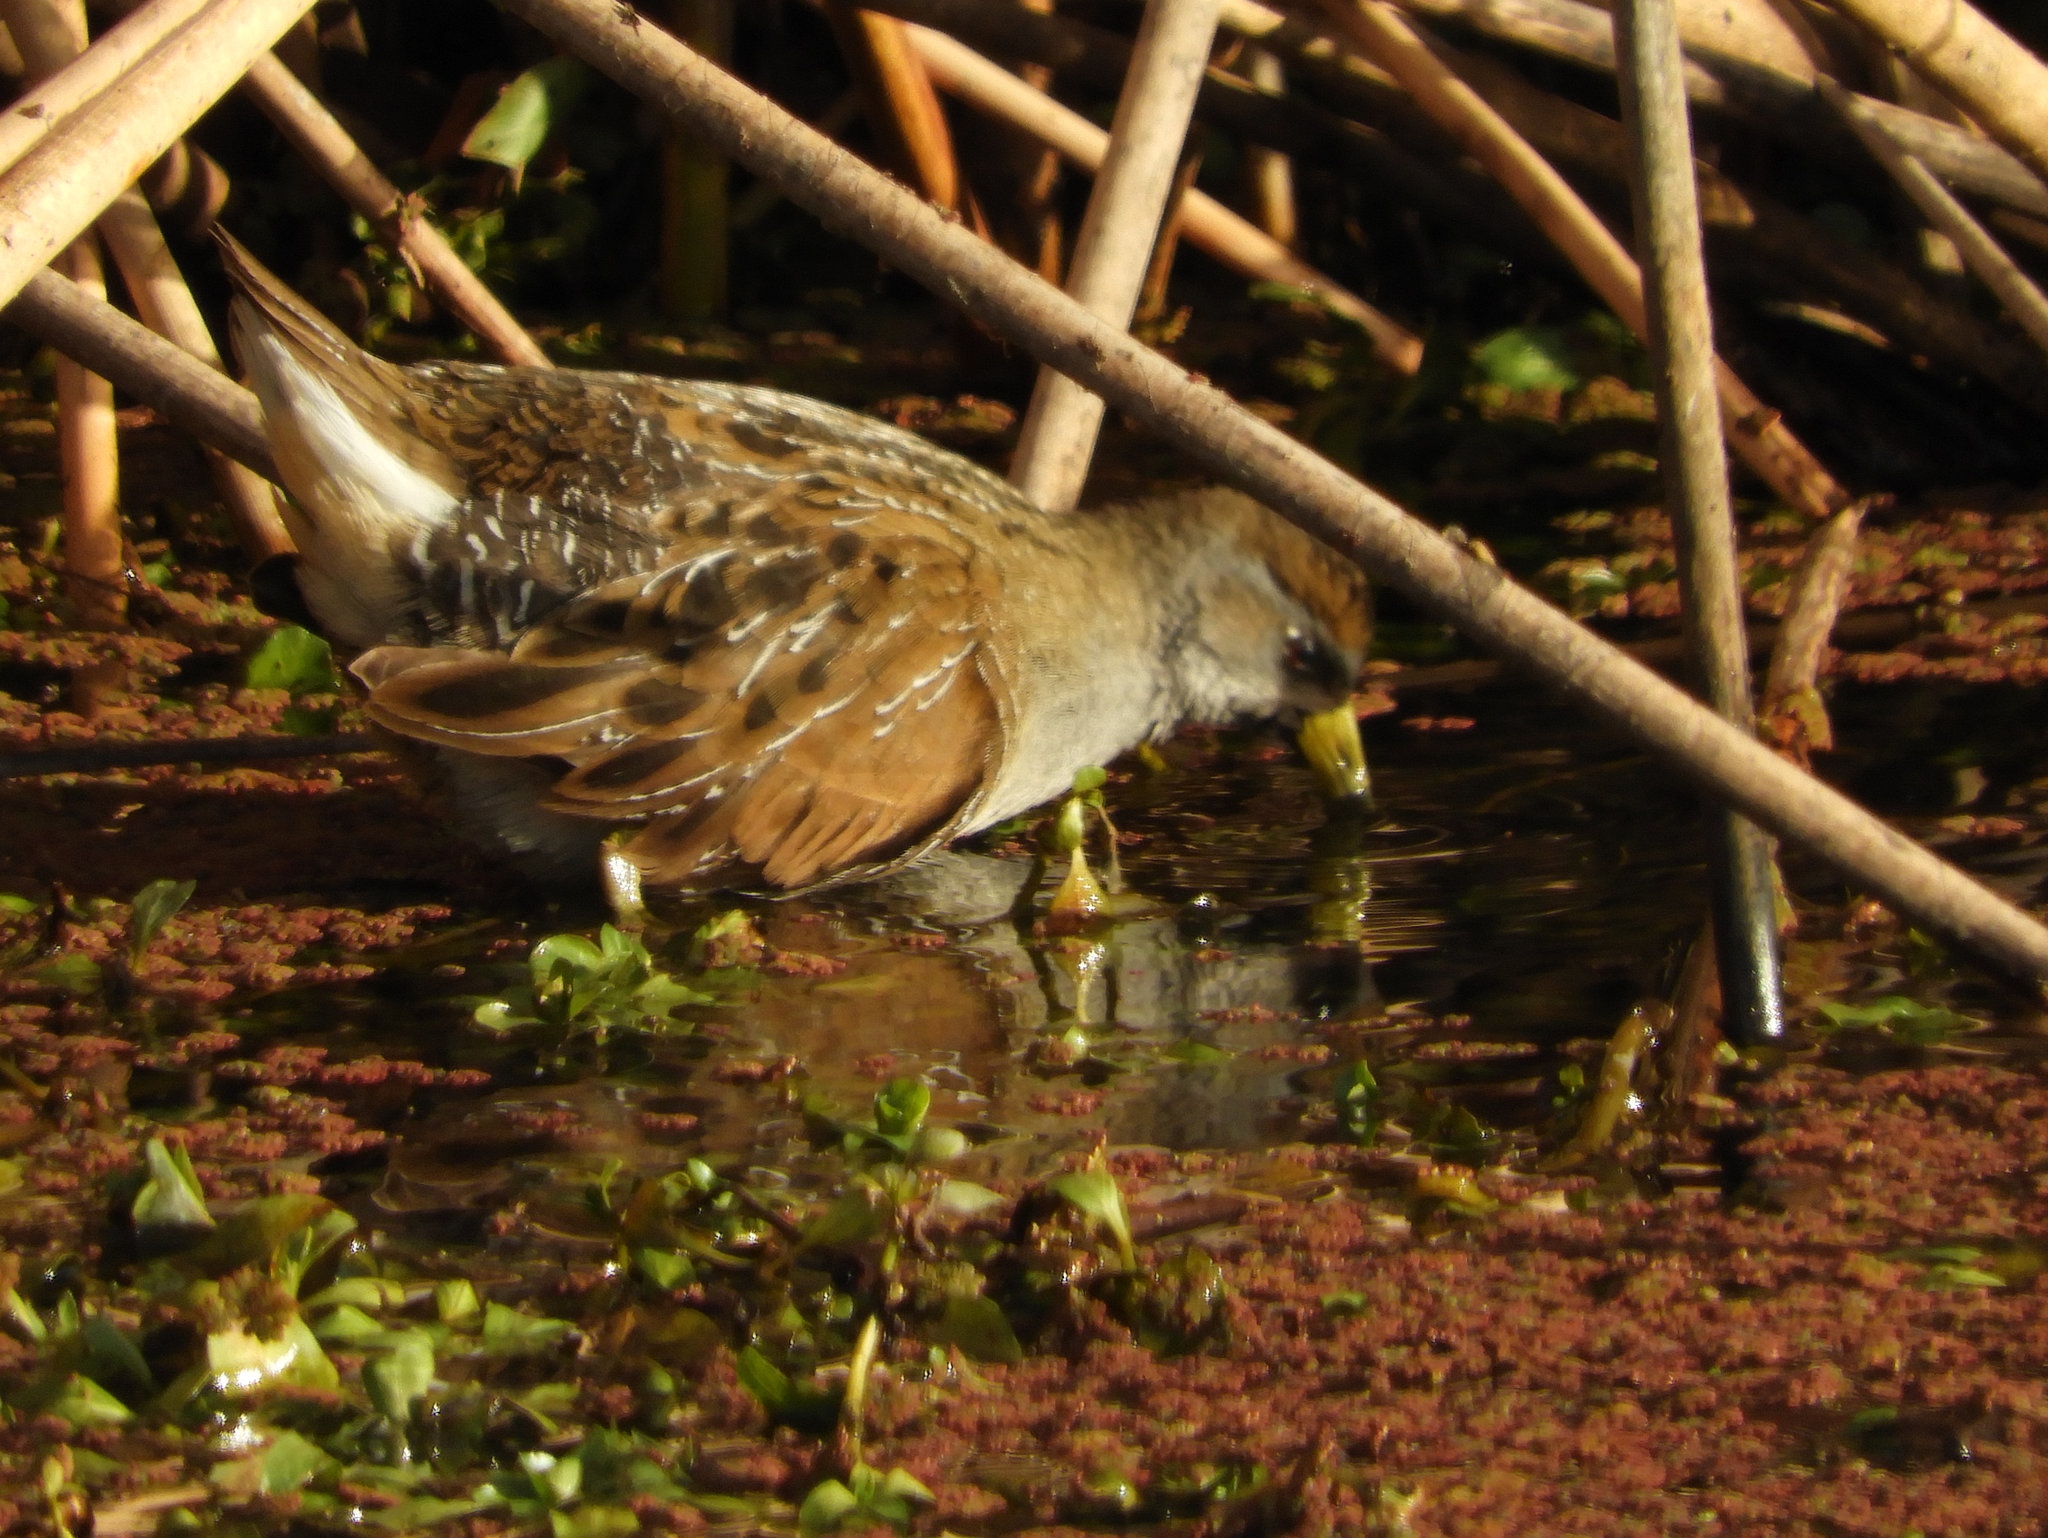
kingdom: Animalia
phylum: Chordata
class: Aves
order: Gruiformes
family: Rallidae
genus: Porzana
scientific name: Porzana carolina
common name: Sora
